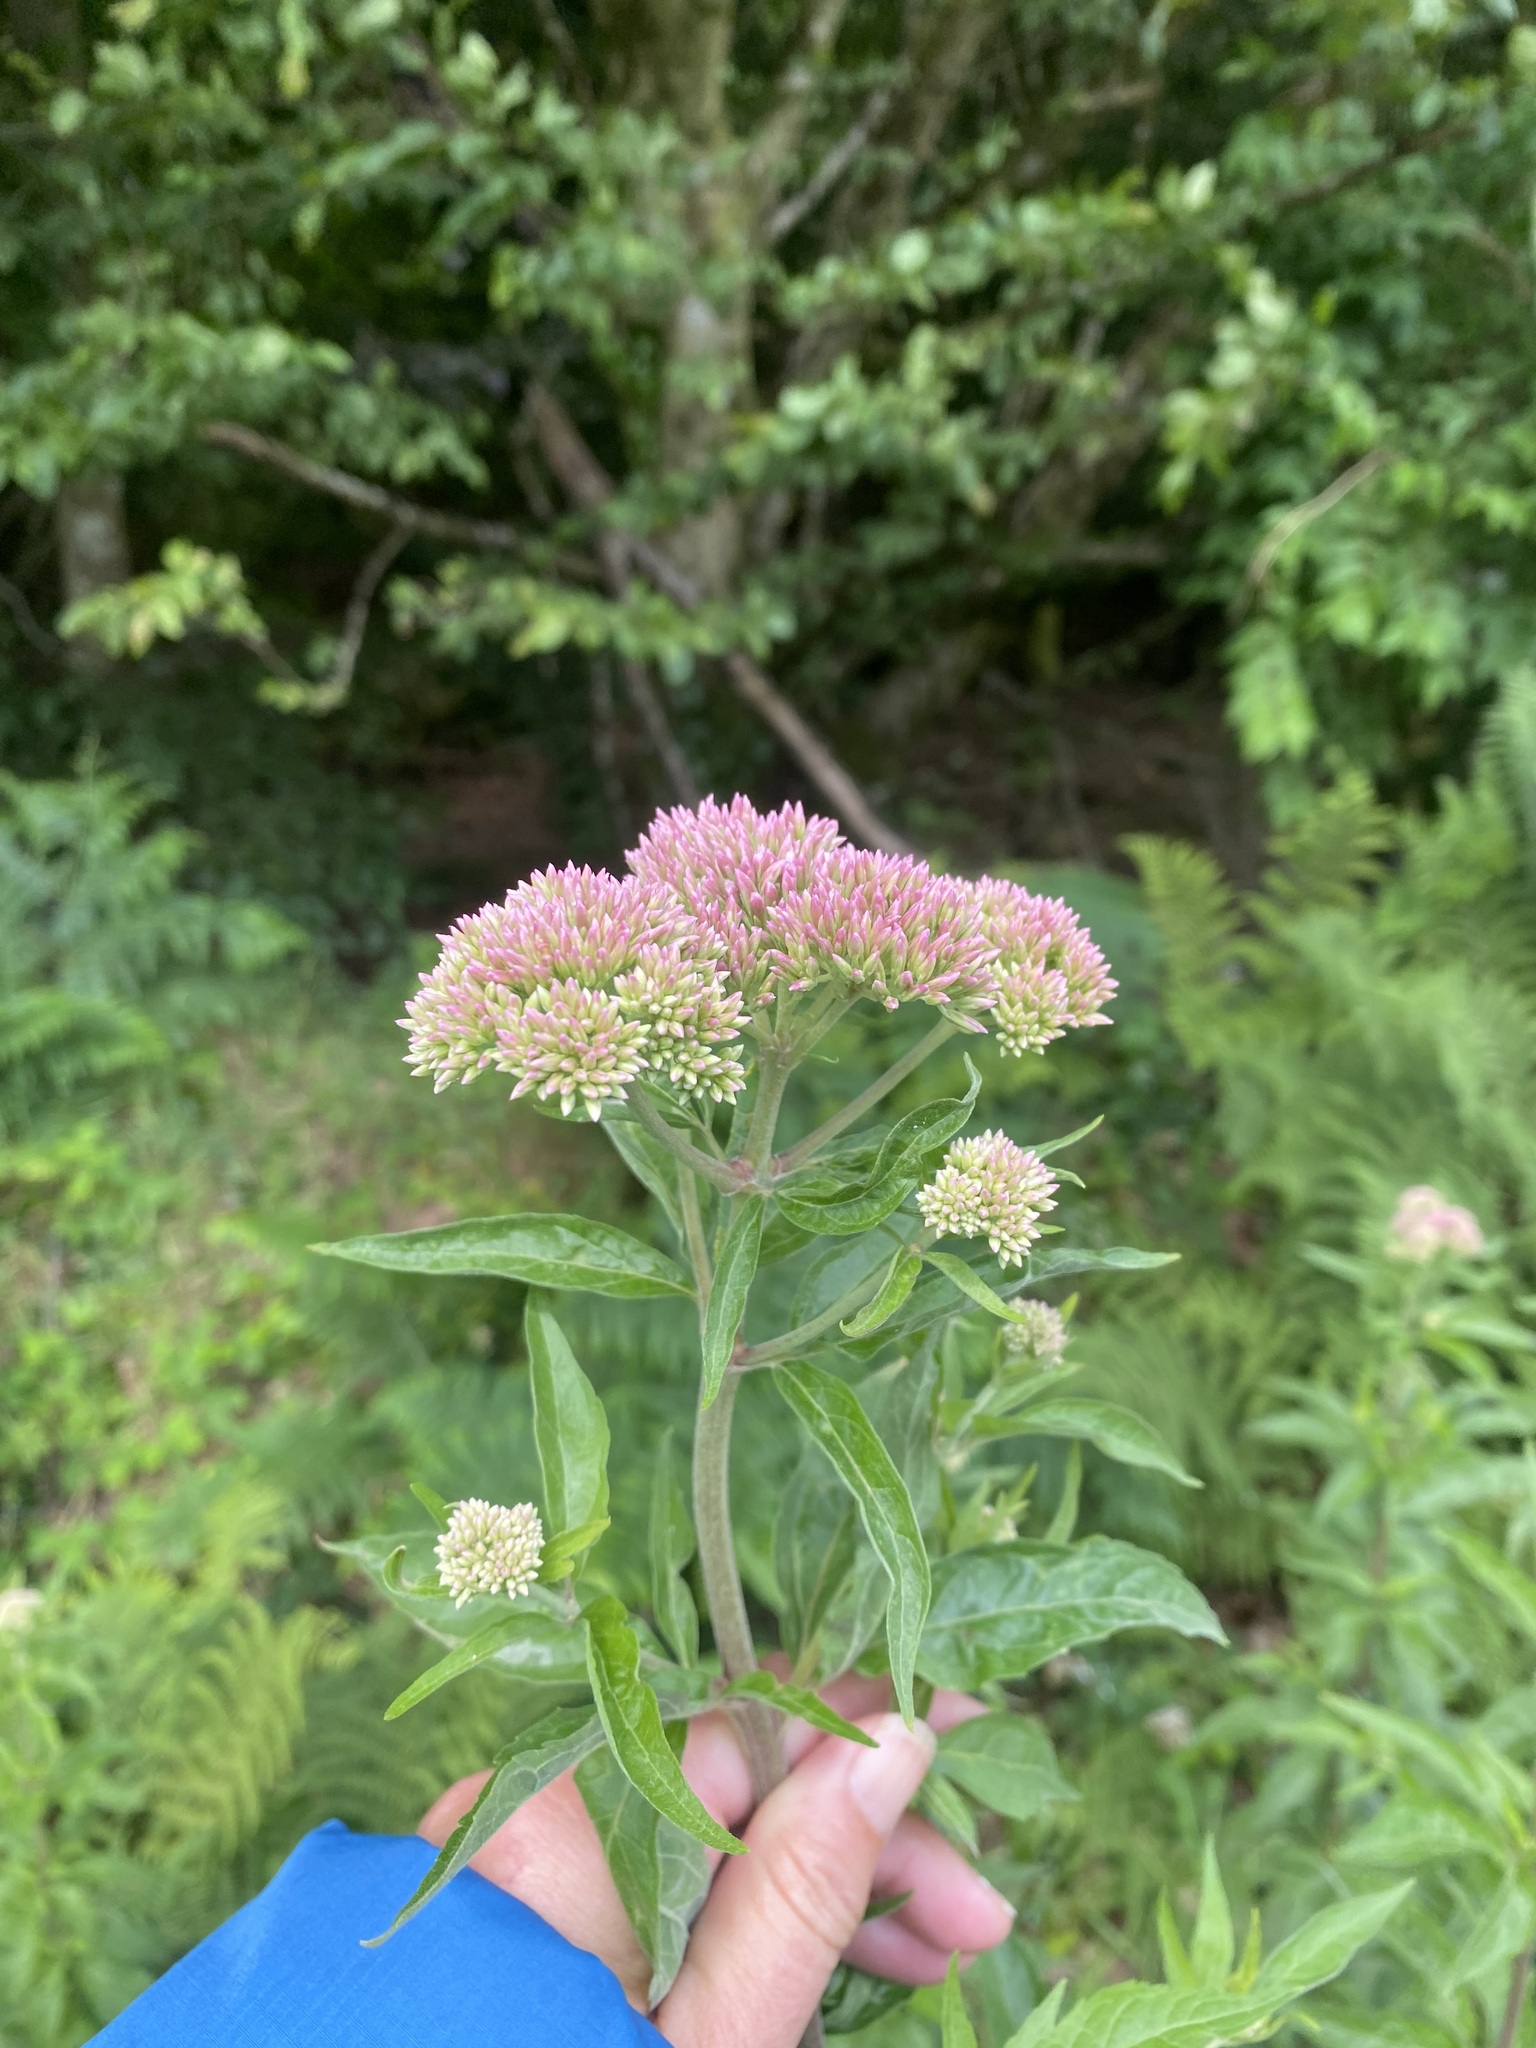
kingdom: Plantae
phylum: Tracheophyta
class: Magnoliopsida
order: Asterales
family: Asteraceae
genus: Eupatorium
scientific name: Eupatorium cannabinum
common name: Hemp-agrimony
